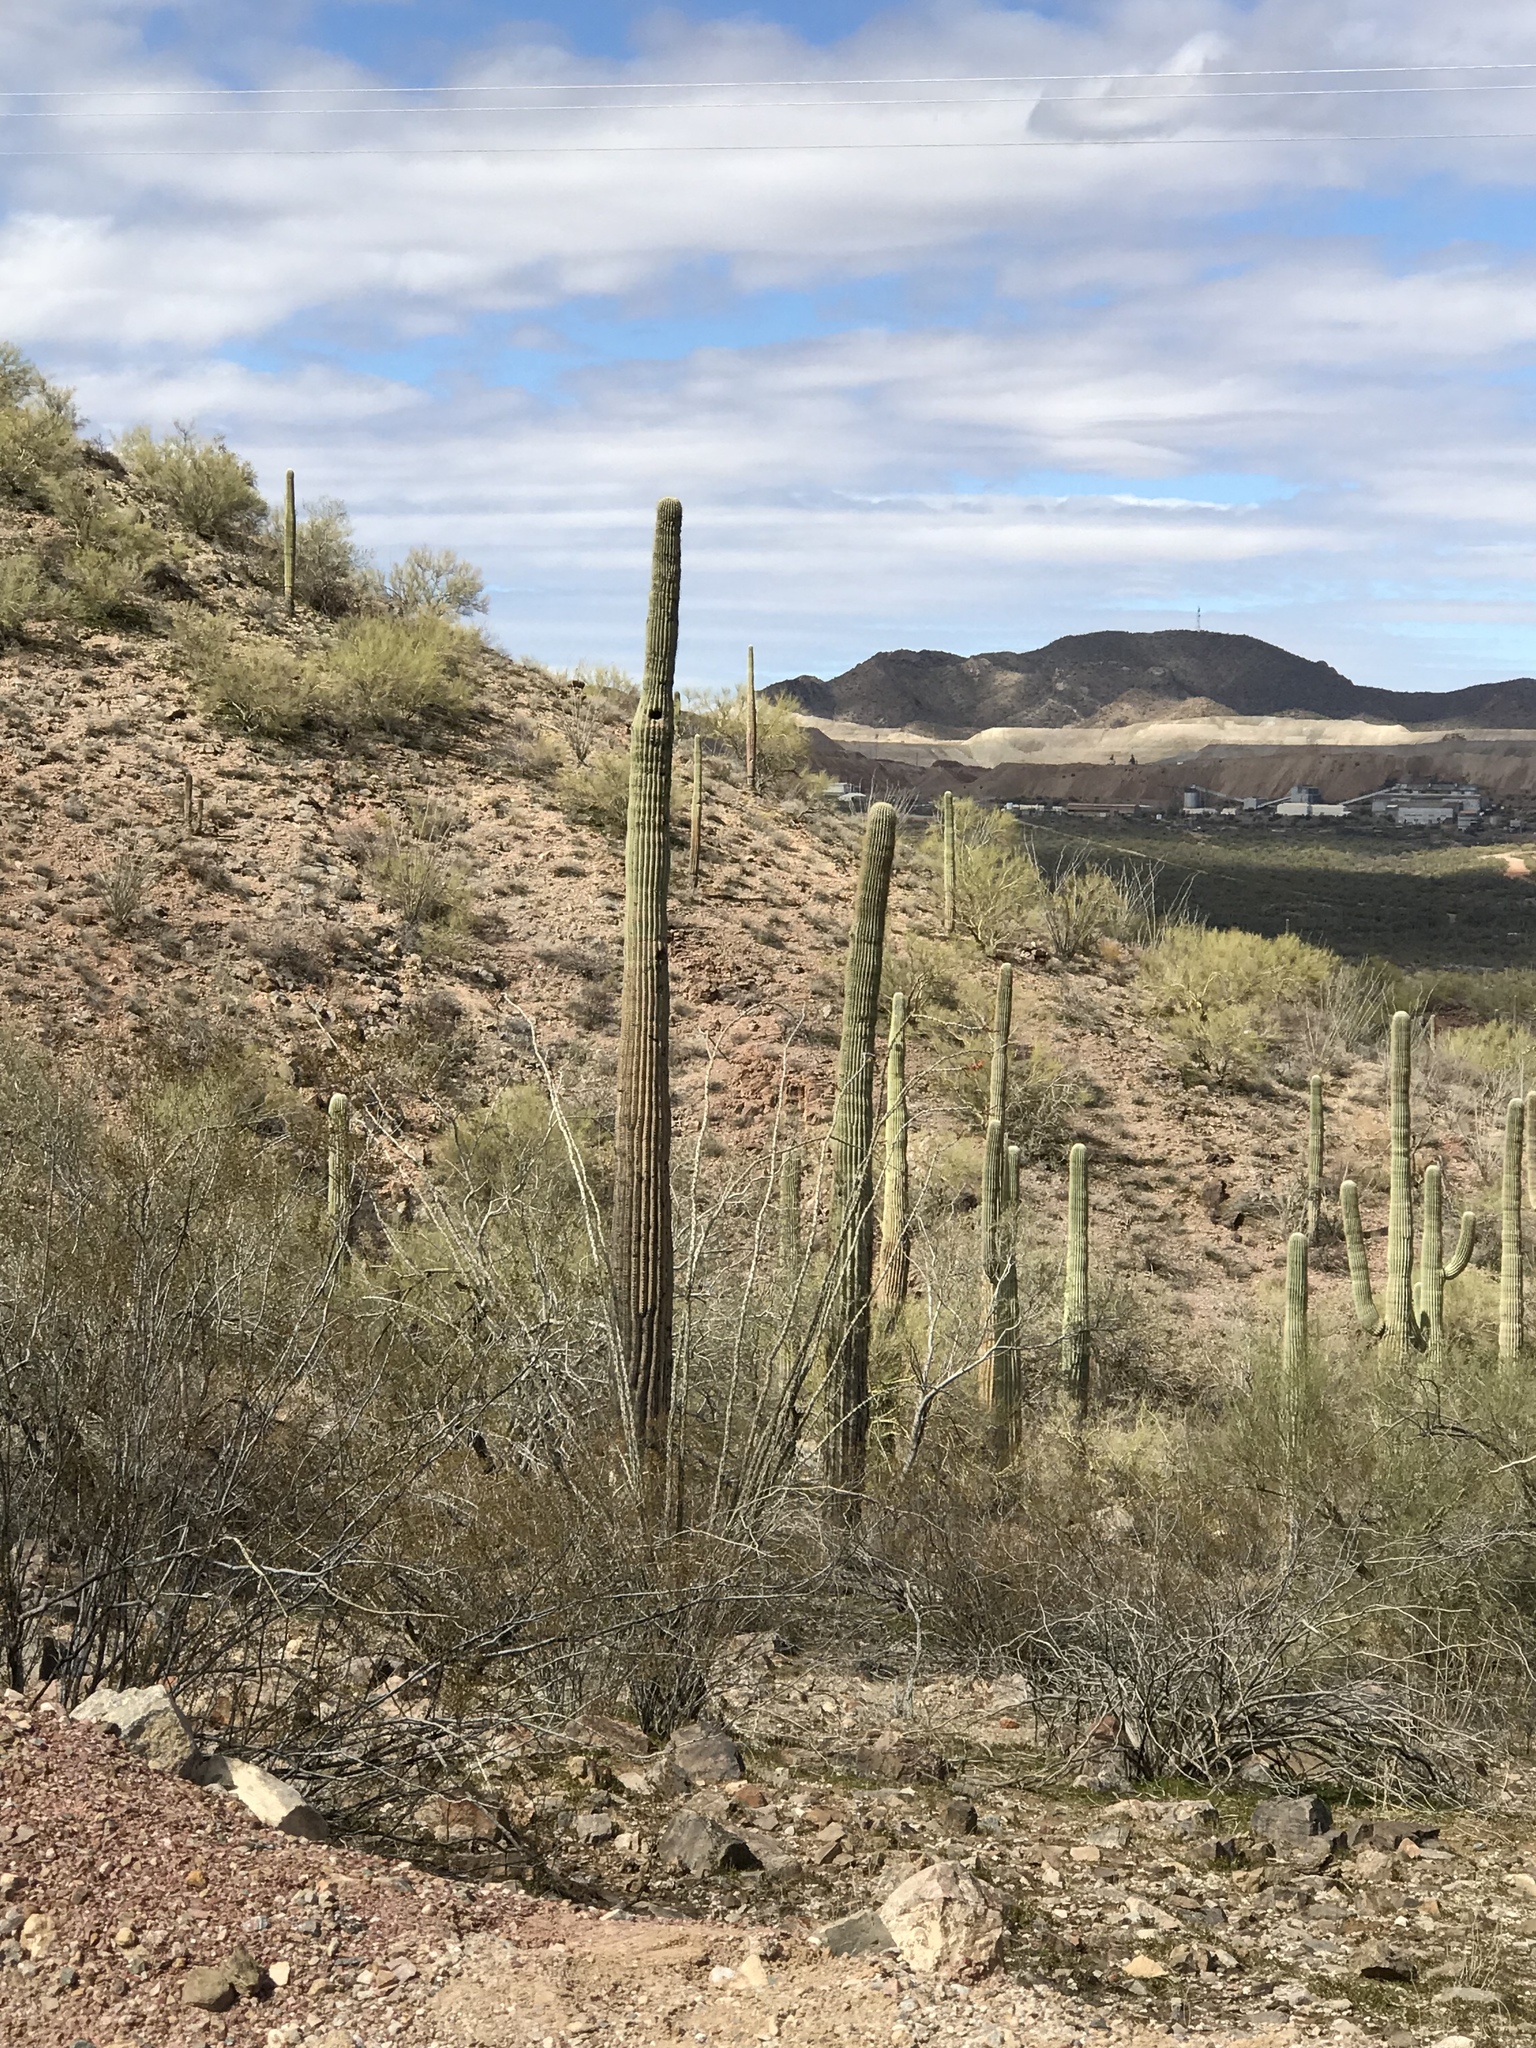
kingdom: Plantae
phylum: Tracheophyta
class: Magnoliopsida
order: Caryophyllales
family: Cactaceae
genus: Carnegiea
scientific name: Carnegiea gigantea
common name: Saguaro
